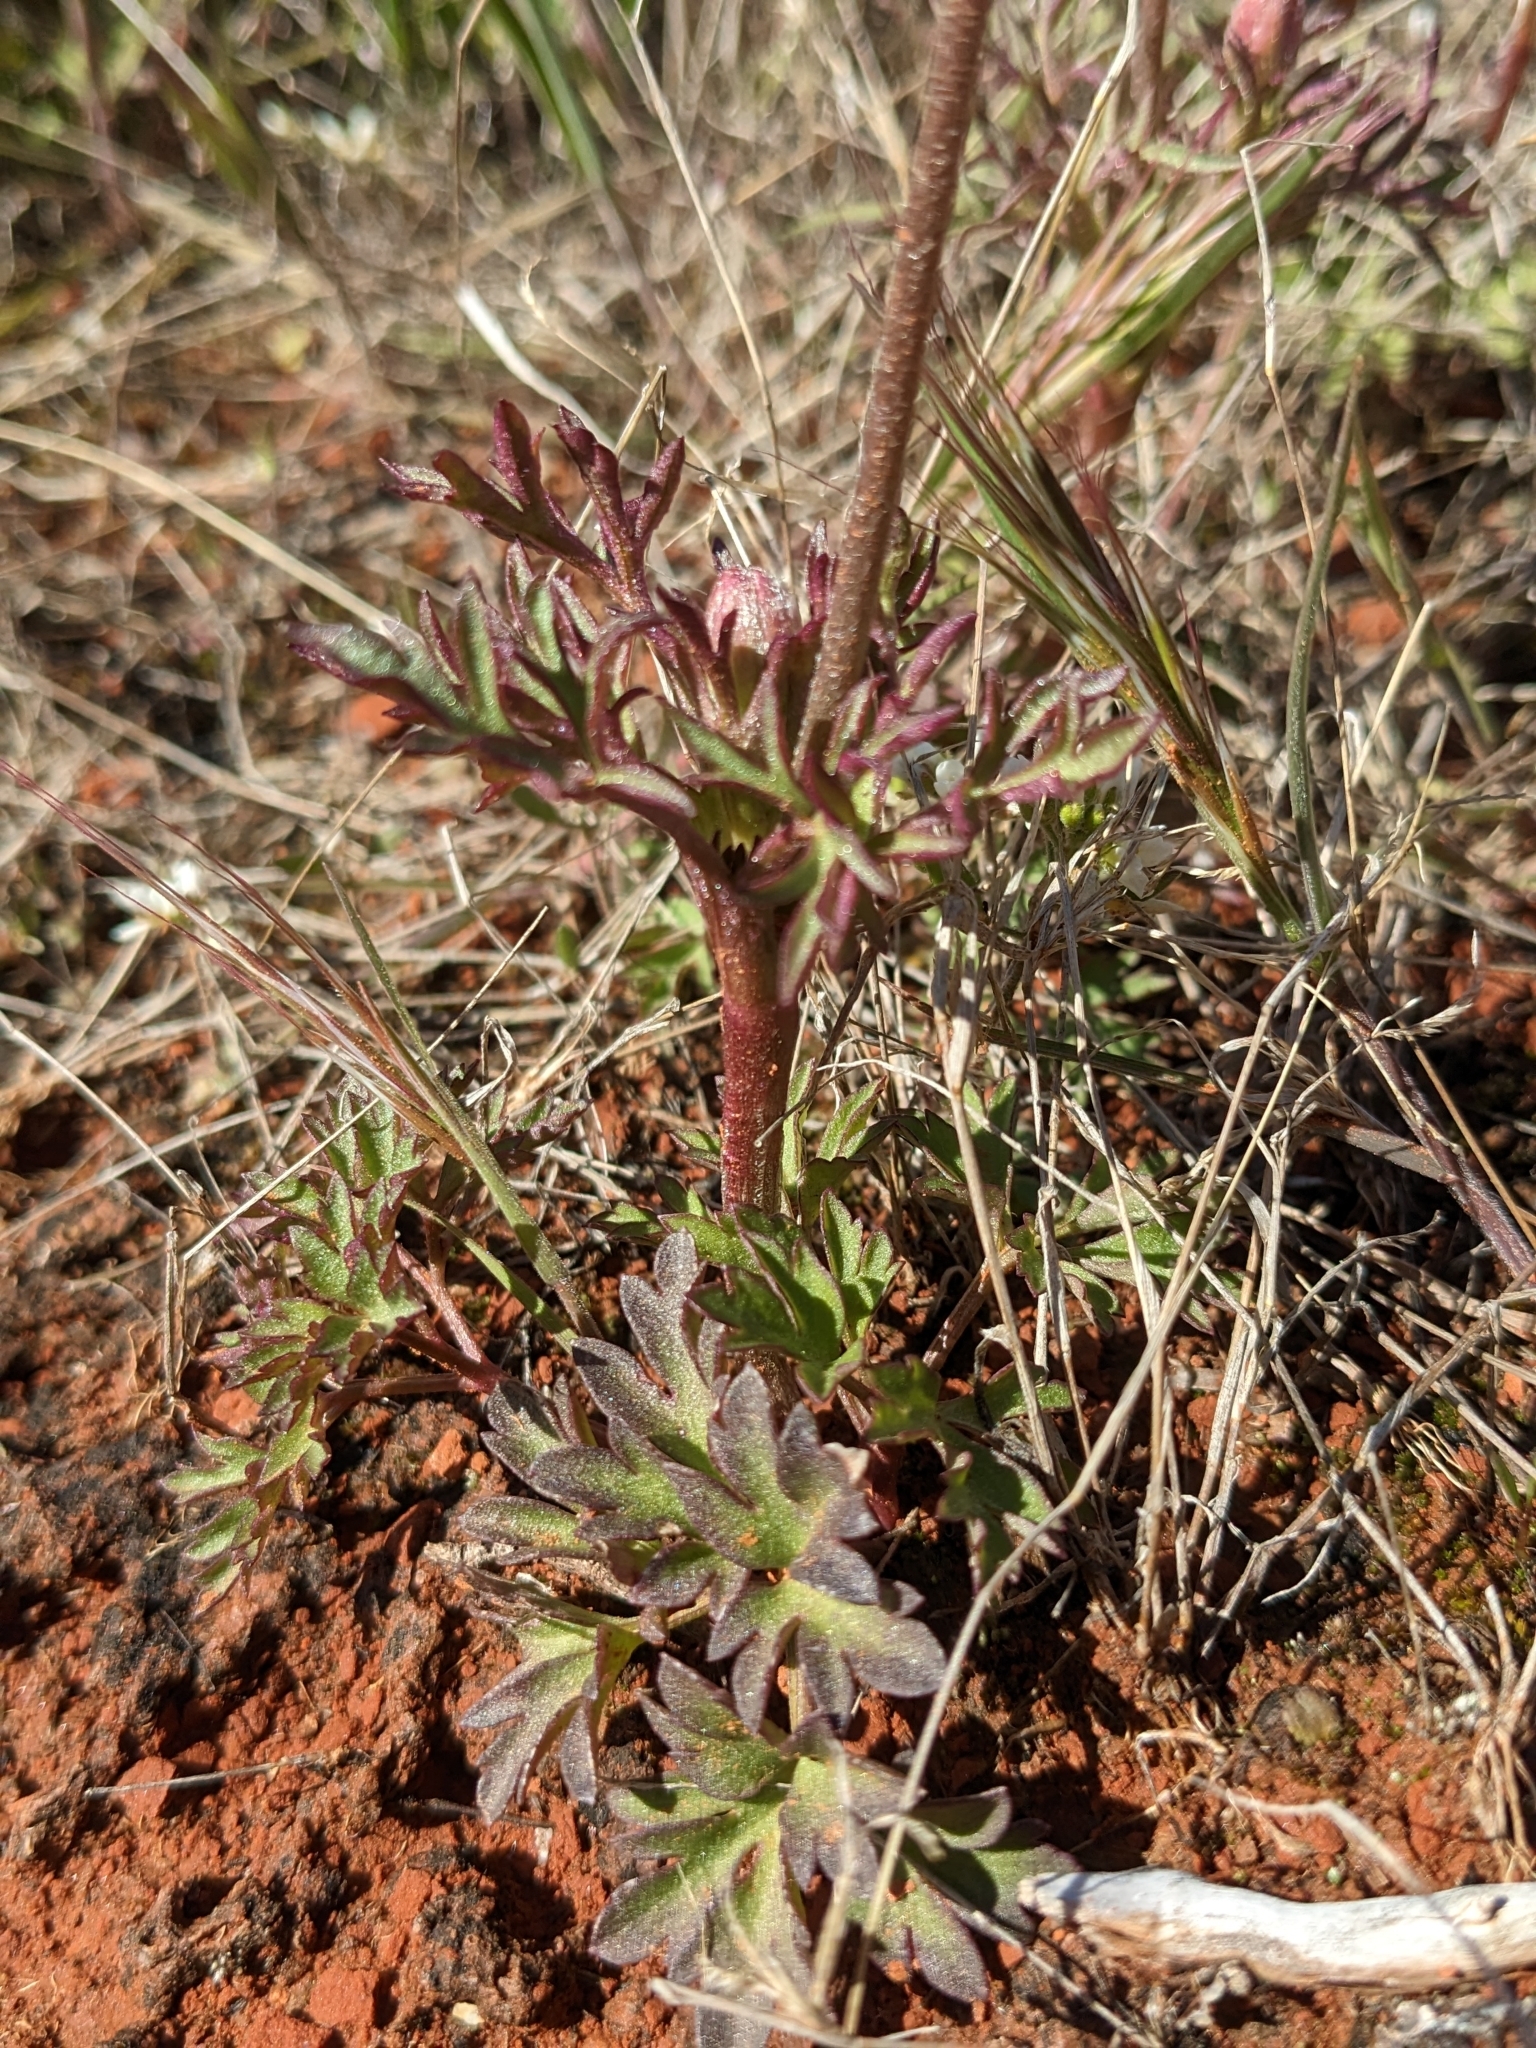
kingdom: Plantae
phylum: Tracheophyta
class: Magnoliopsida
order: Ranunculales
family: Ranunculaceae
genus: Anemone
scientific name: Anemone tuberosa
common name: Desert anemone
